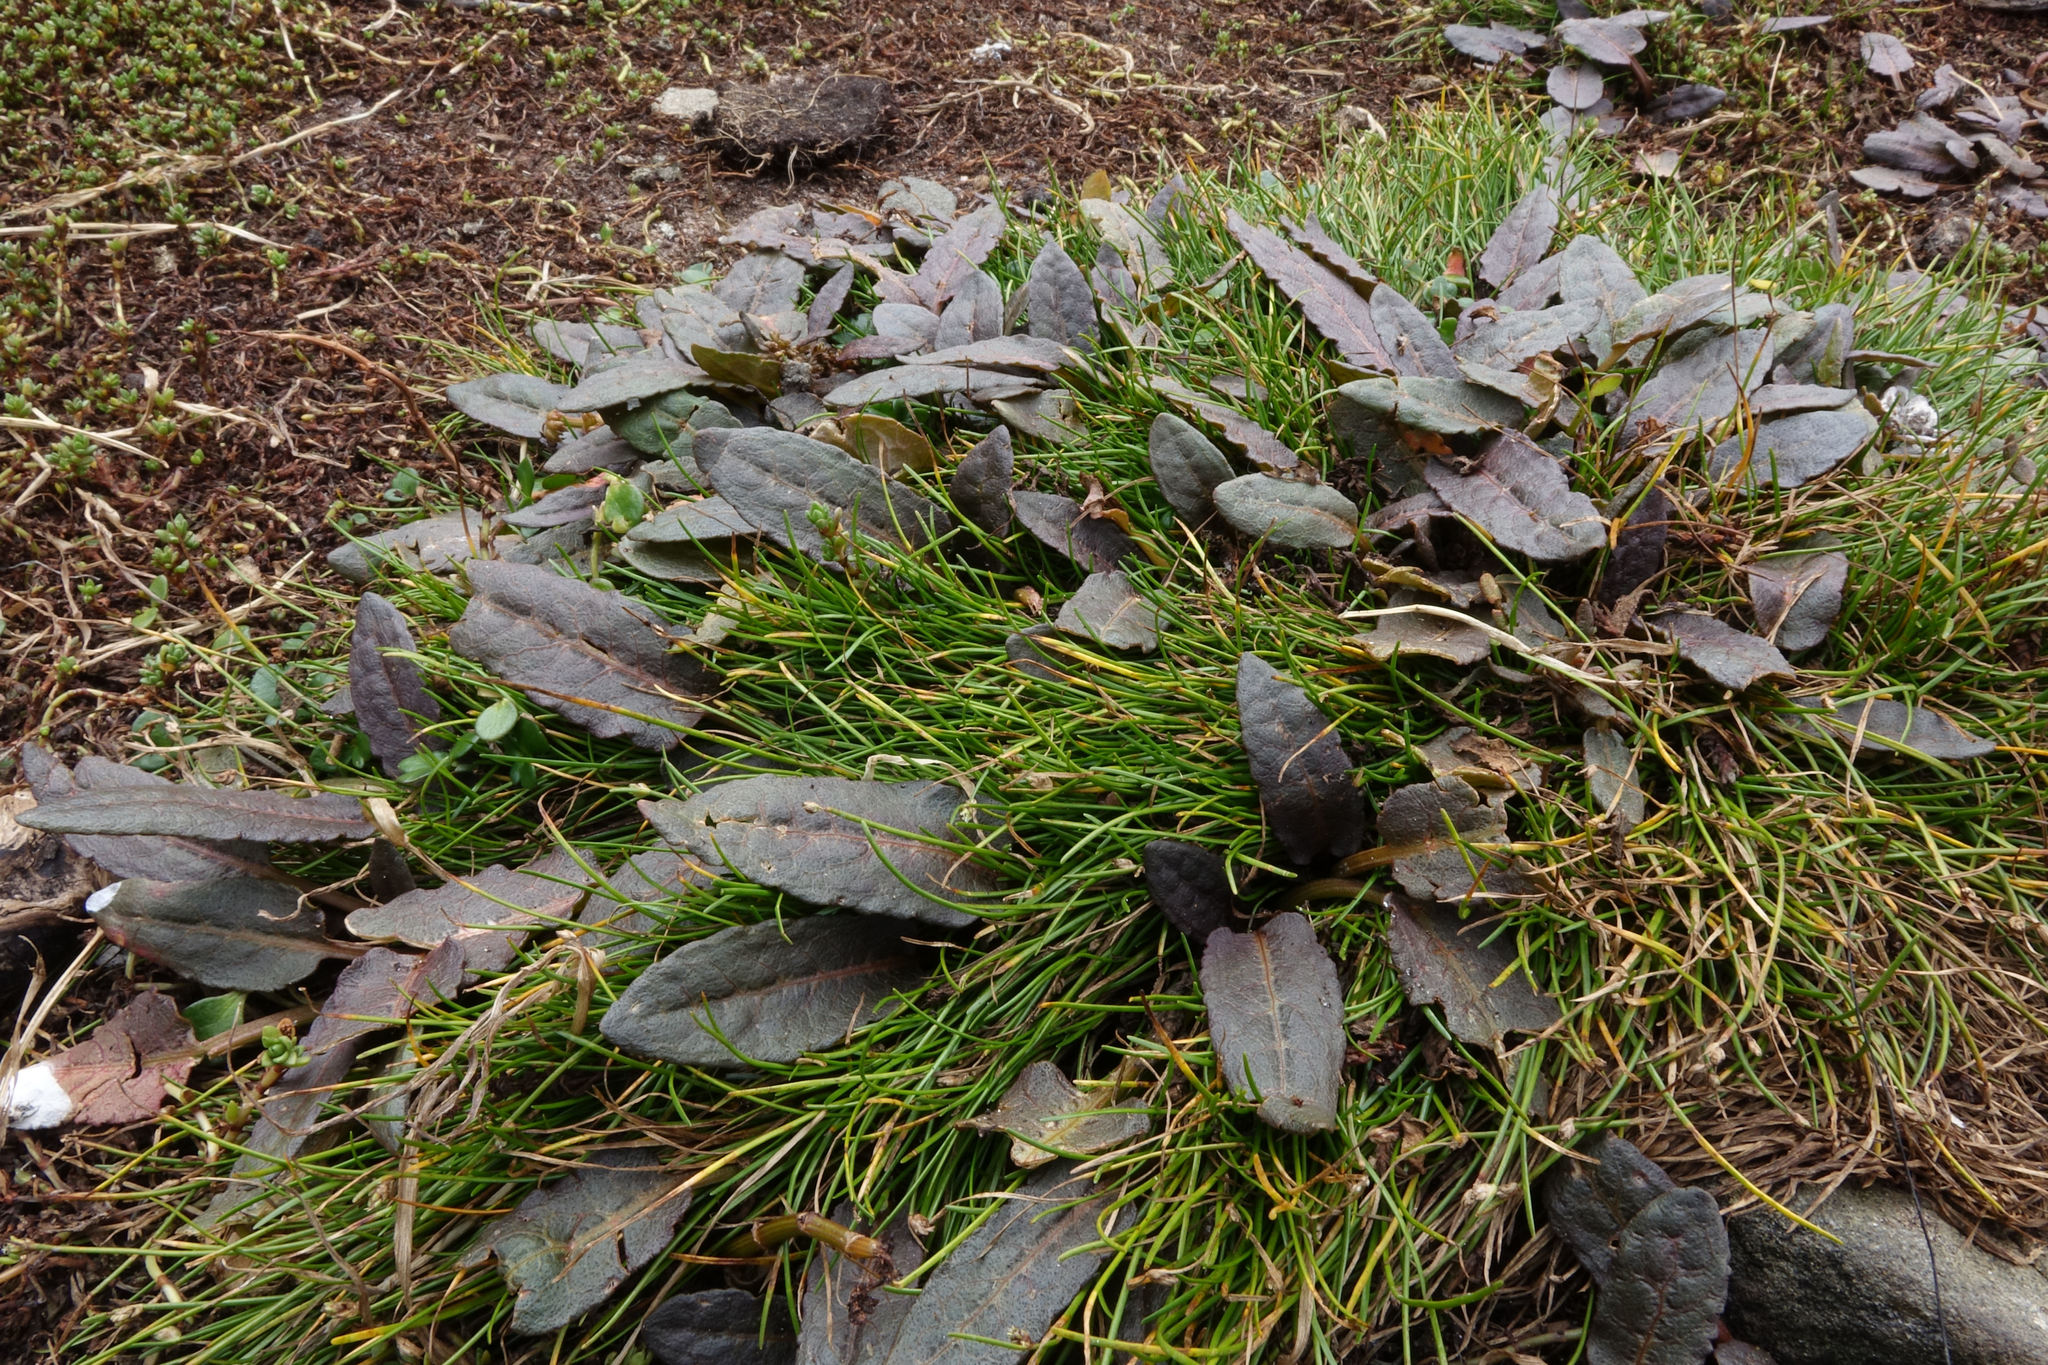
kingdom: Plantae
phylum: Tracheophyta
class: Magnoliopsida
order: Caryophyllales
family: Polygonaceae
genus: Rumex
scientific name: Rumex neglectus
